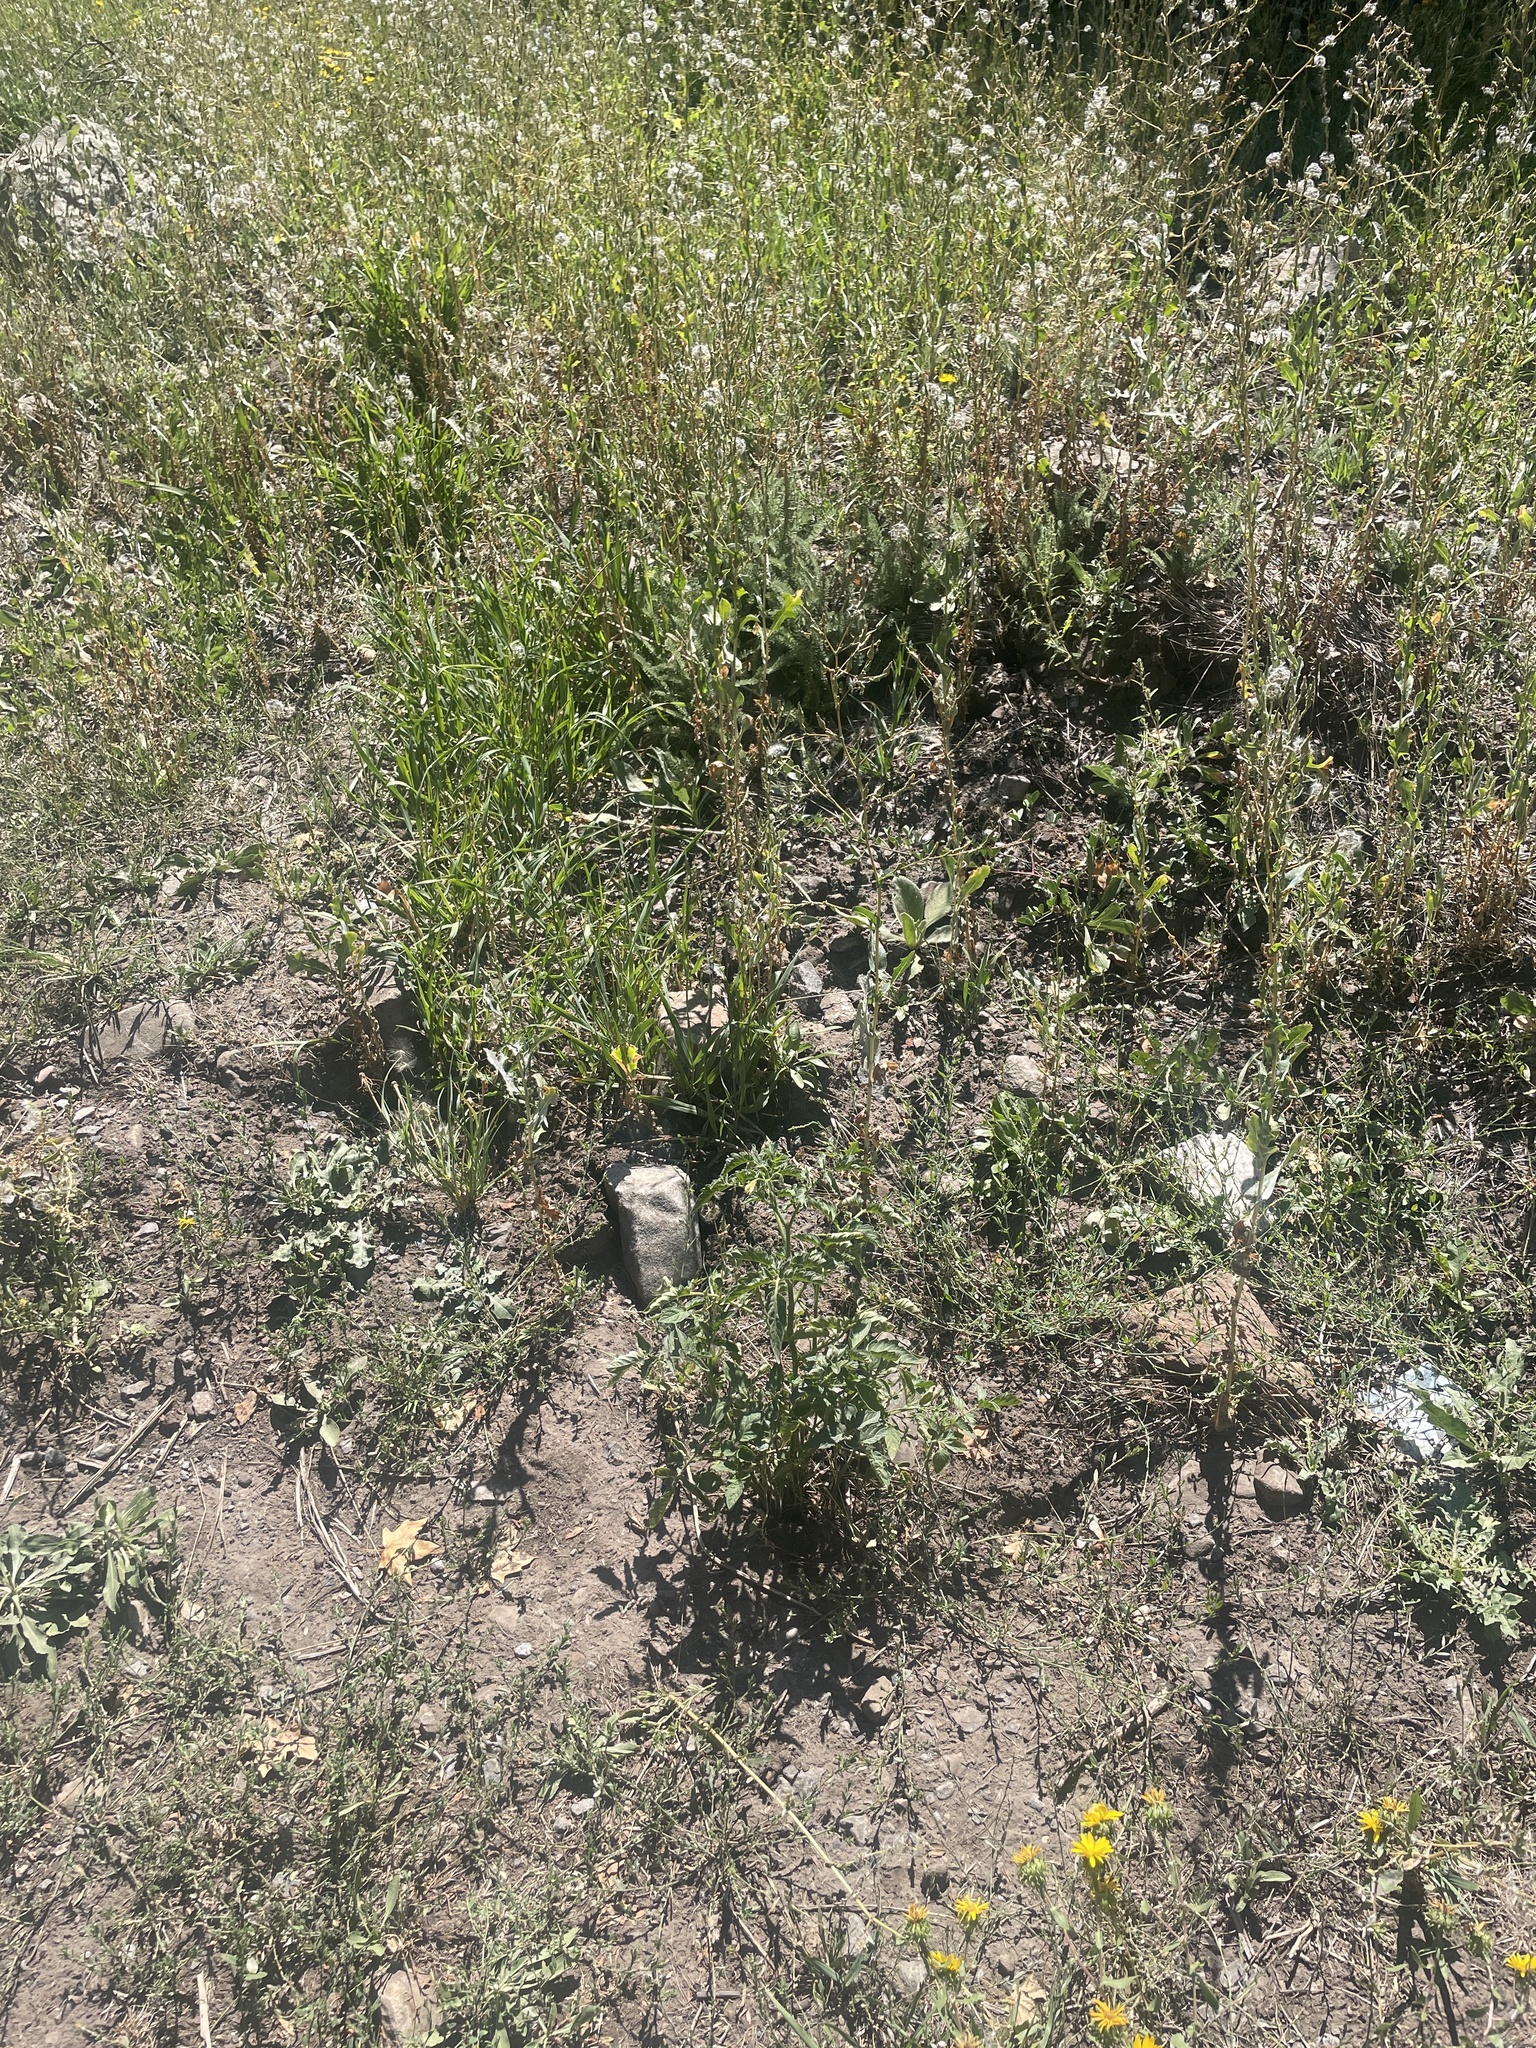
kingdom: Plantae
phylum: Tracheophyta
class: Magnoliopsida
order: Solanales
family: Solanaceae
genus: Solanum
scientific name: Solanum lycopersicum
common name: Garden tomato
